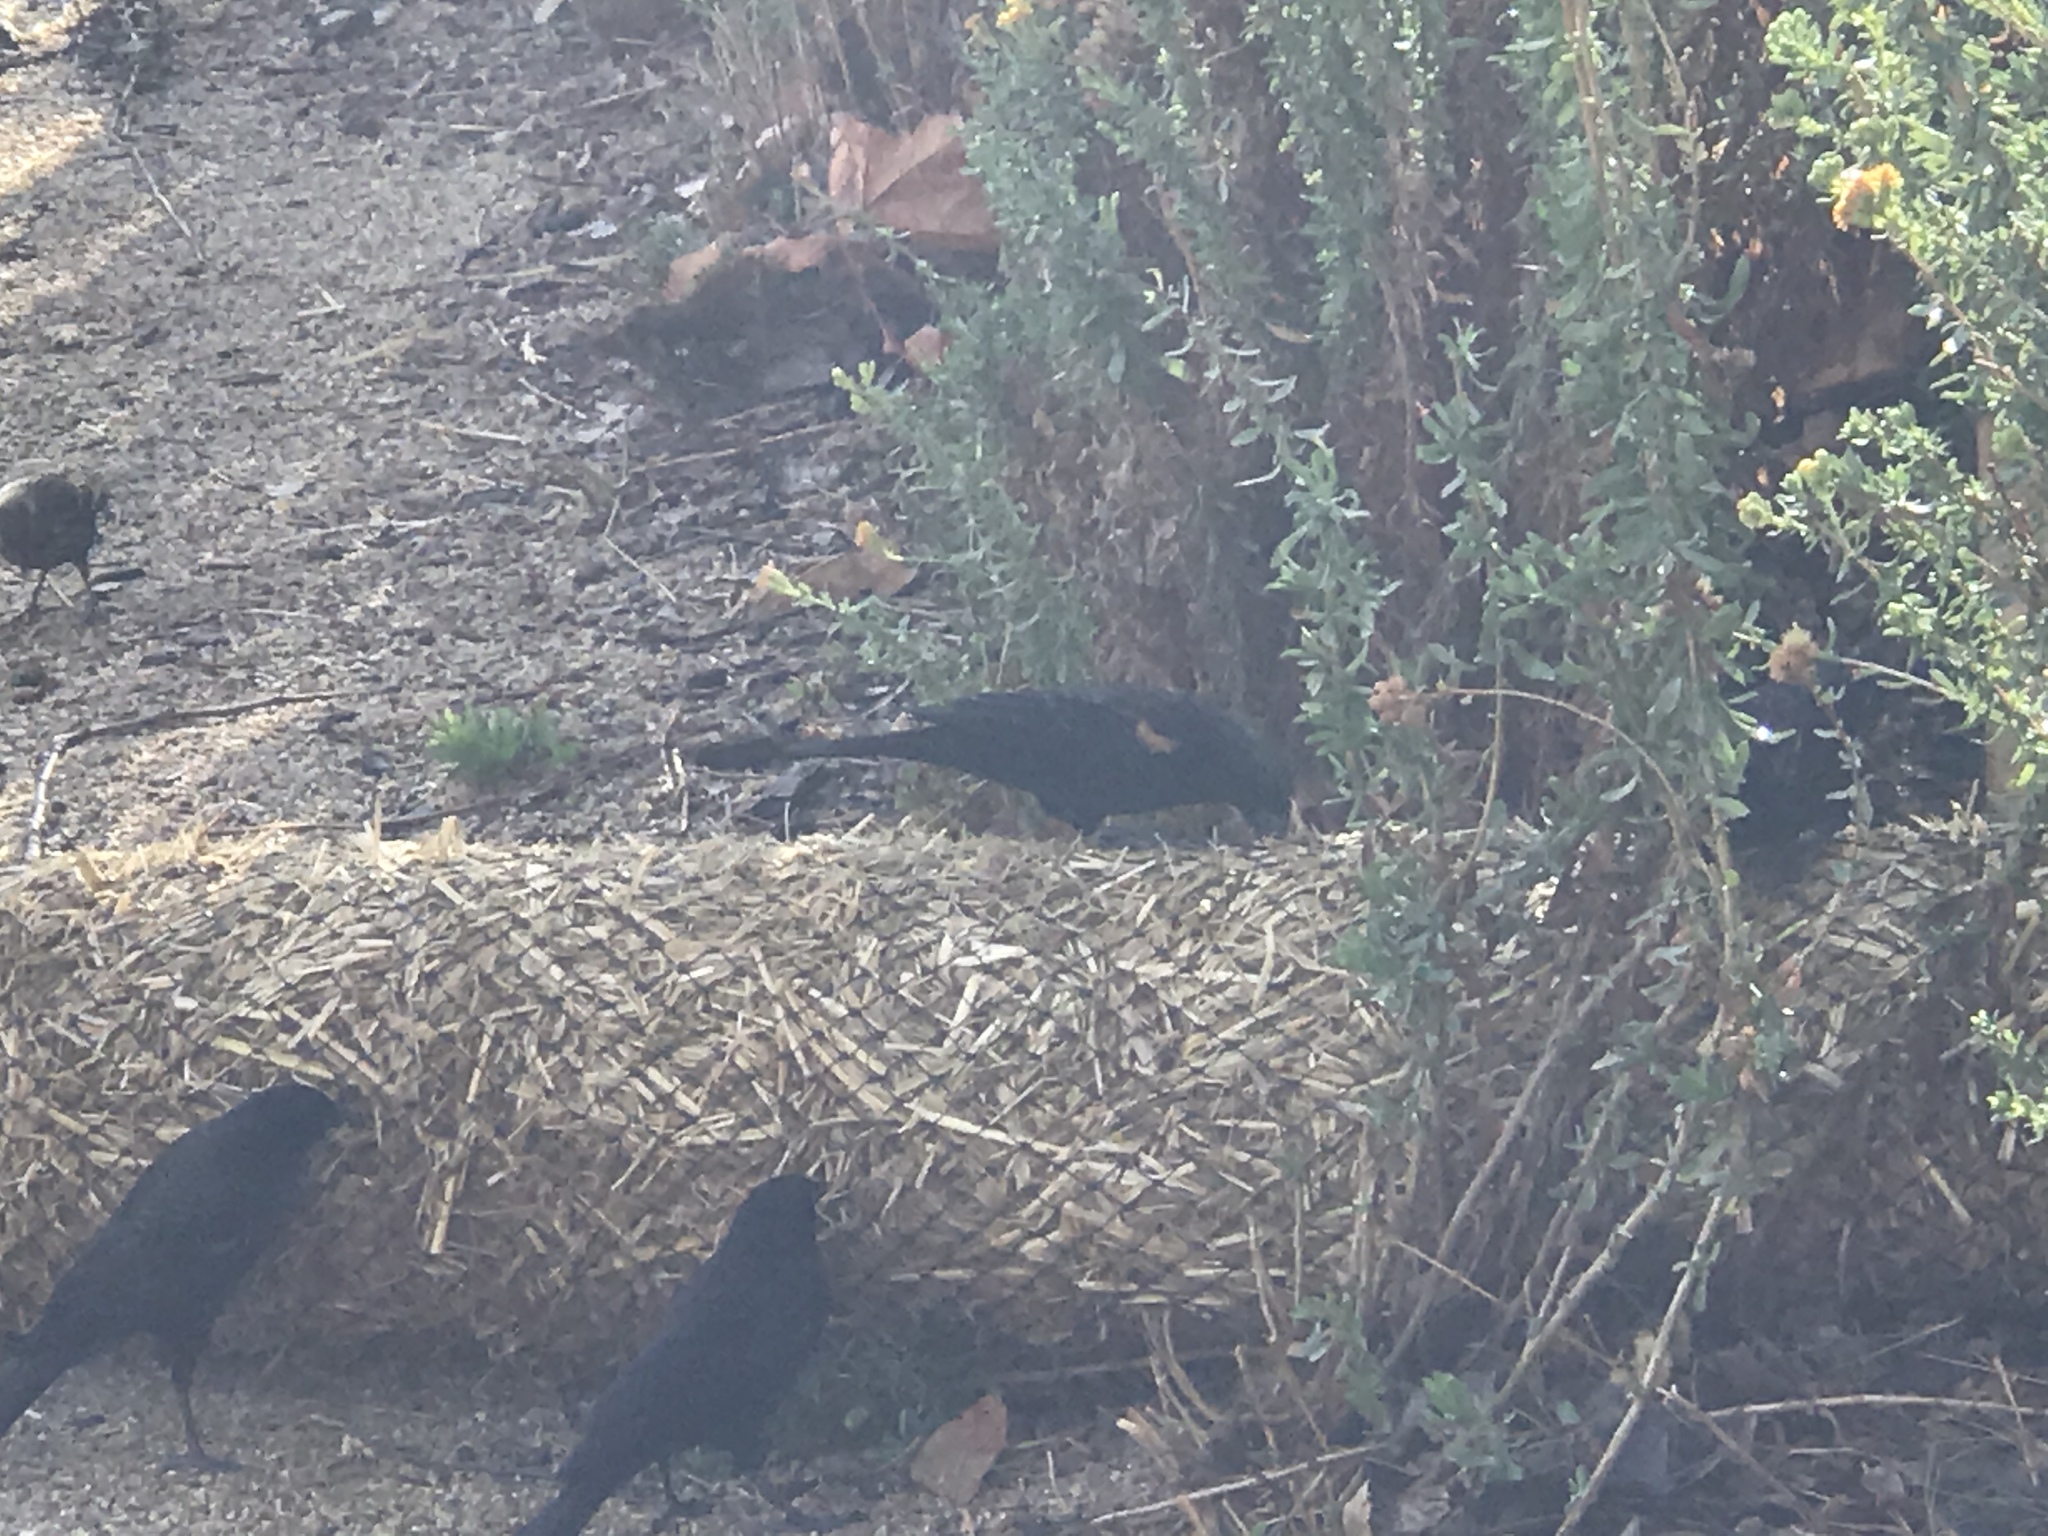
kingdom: Animalia
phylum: Chordata
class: Aves
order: Passeriformes
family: Icteridae
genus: Agelaius
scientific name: Agelaius phoeniceus
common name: Red-winged blackbird
